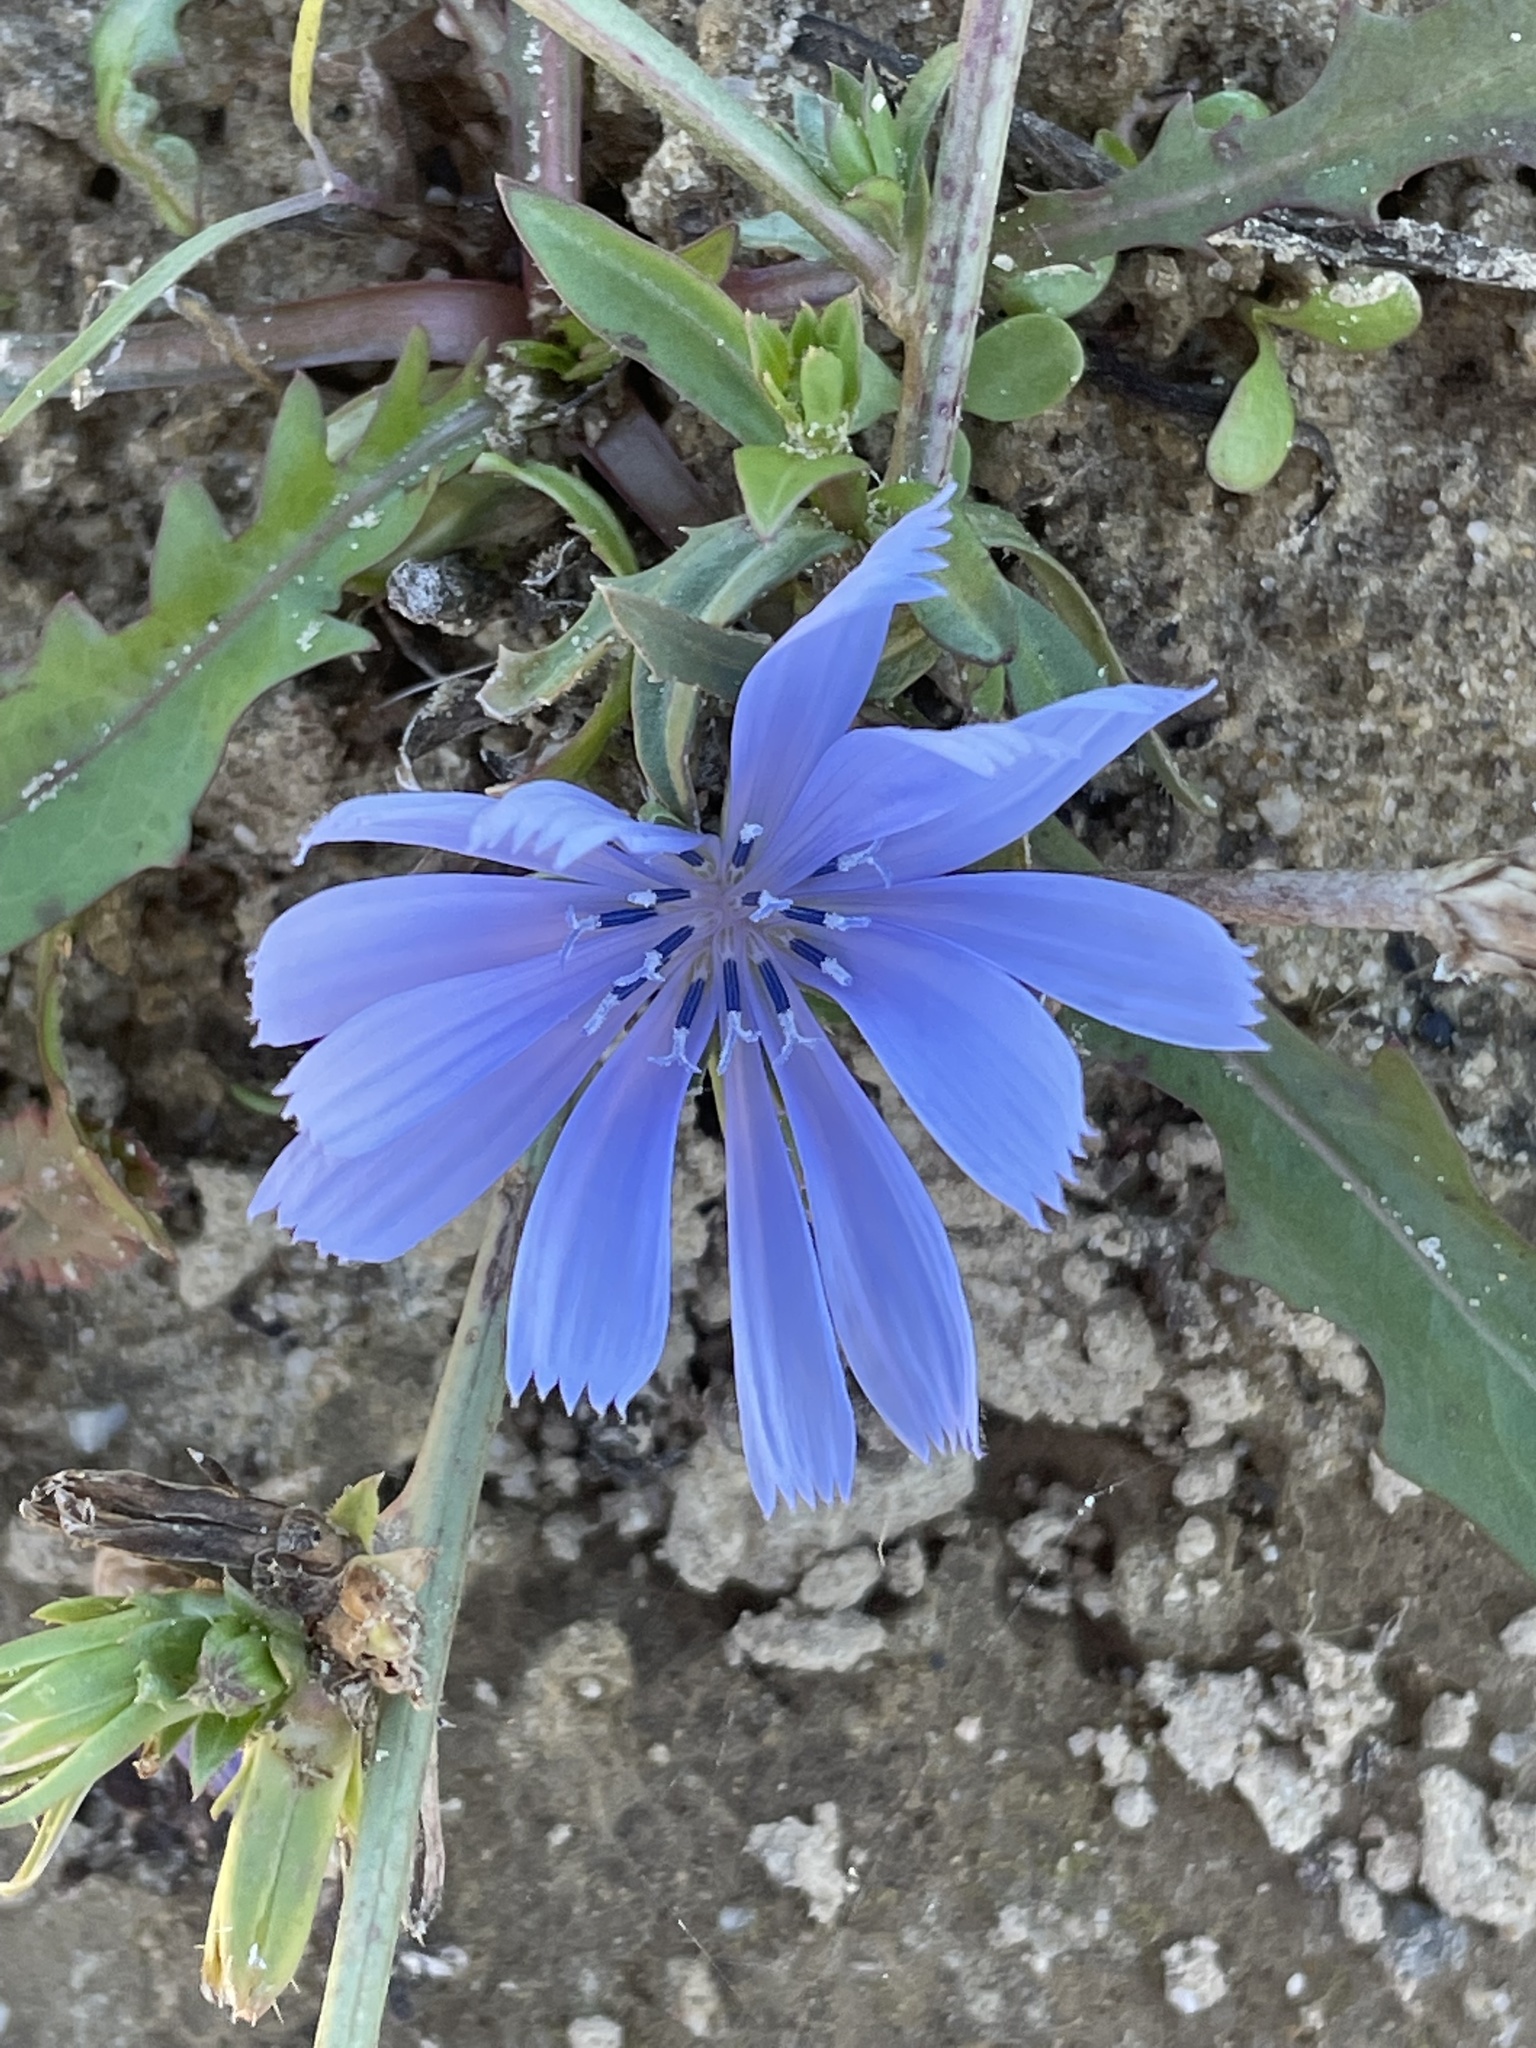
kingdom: Plantae
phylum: Tracheophyta
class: Magnoliopsida
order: Asterales
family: Asteraceae
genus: Cichorium
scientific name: Cichorium intybus
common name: Chicory
